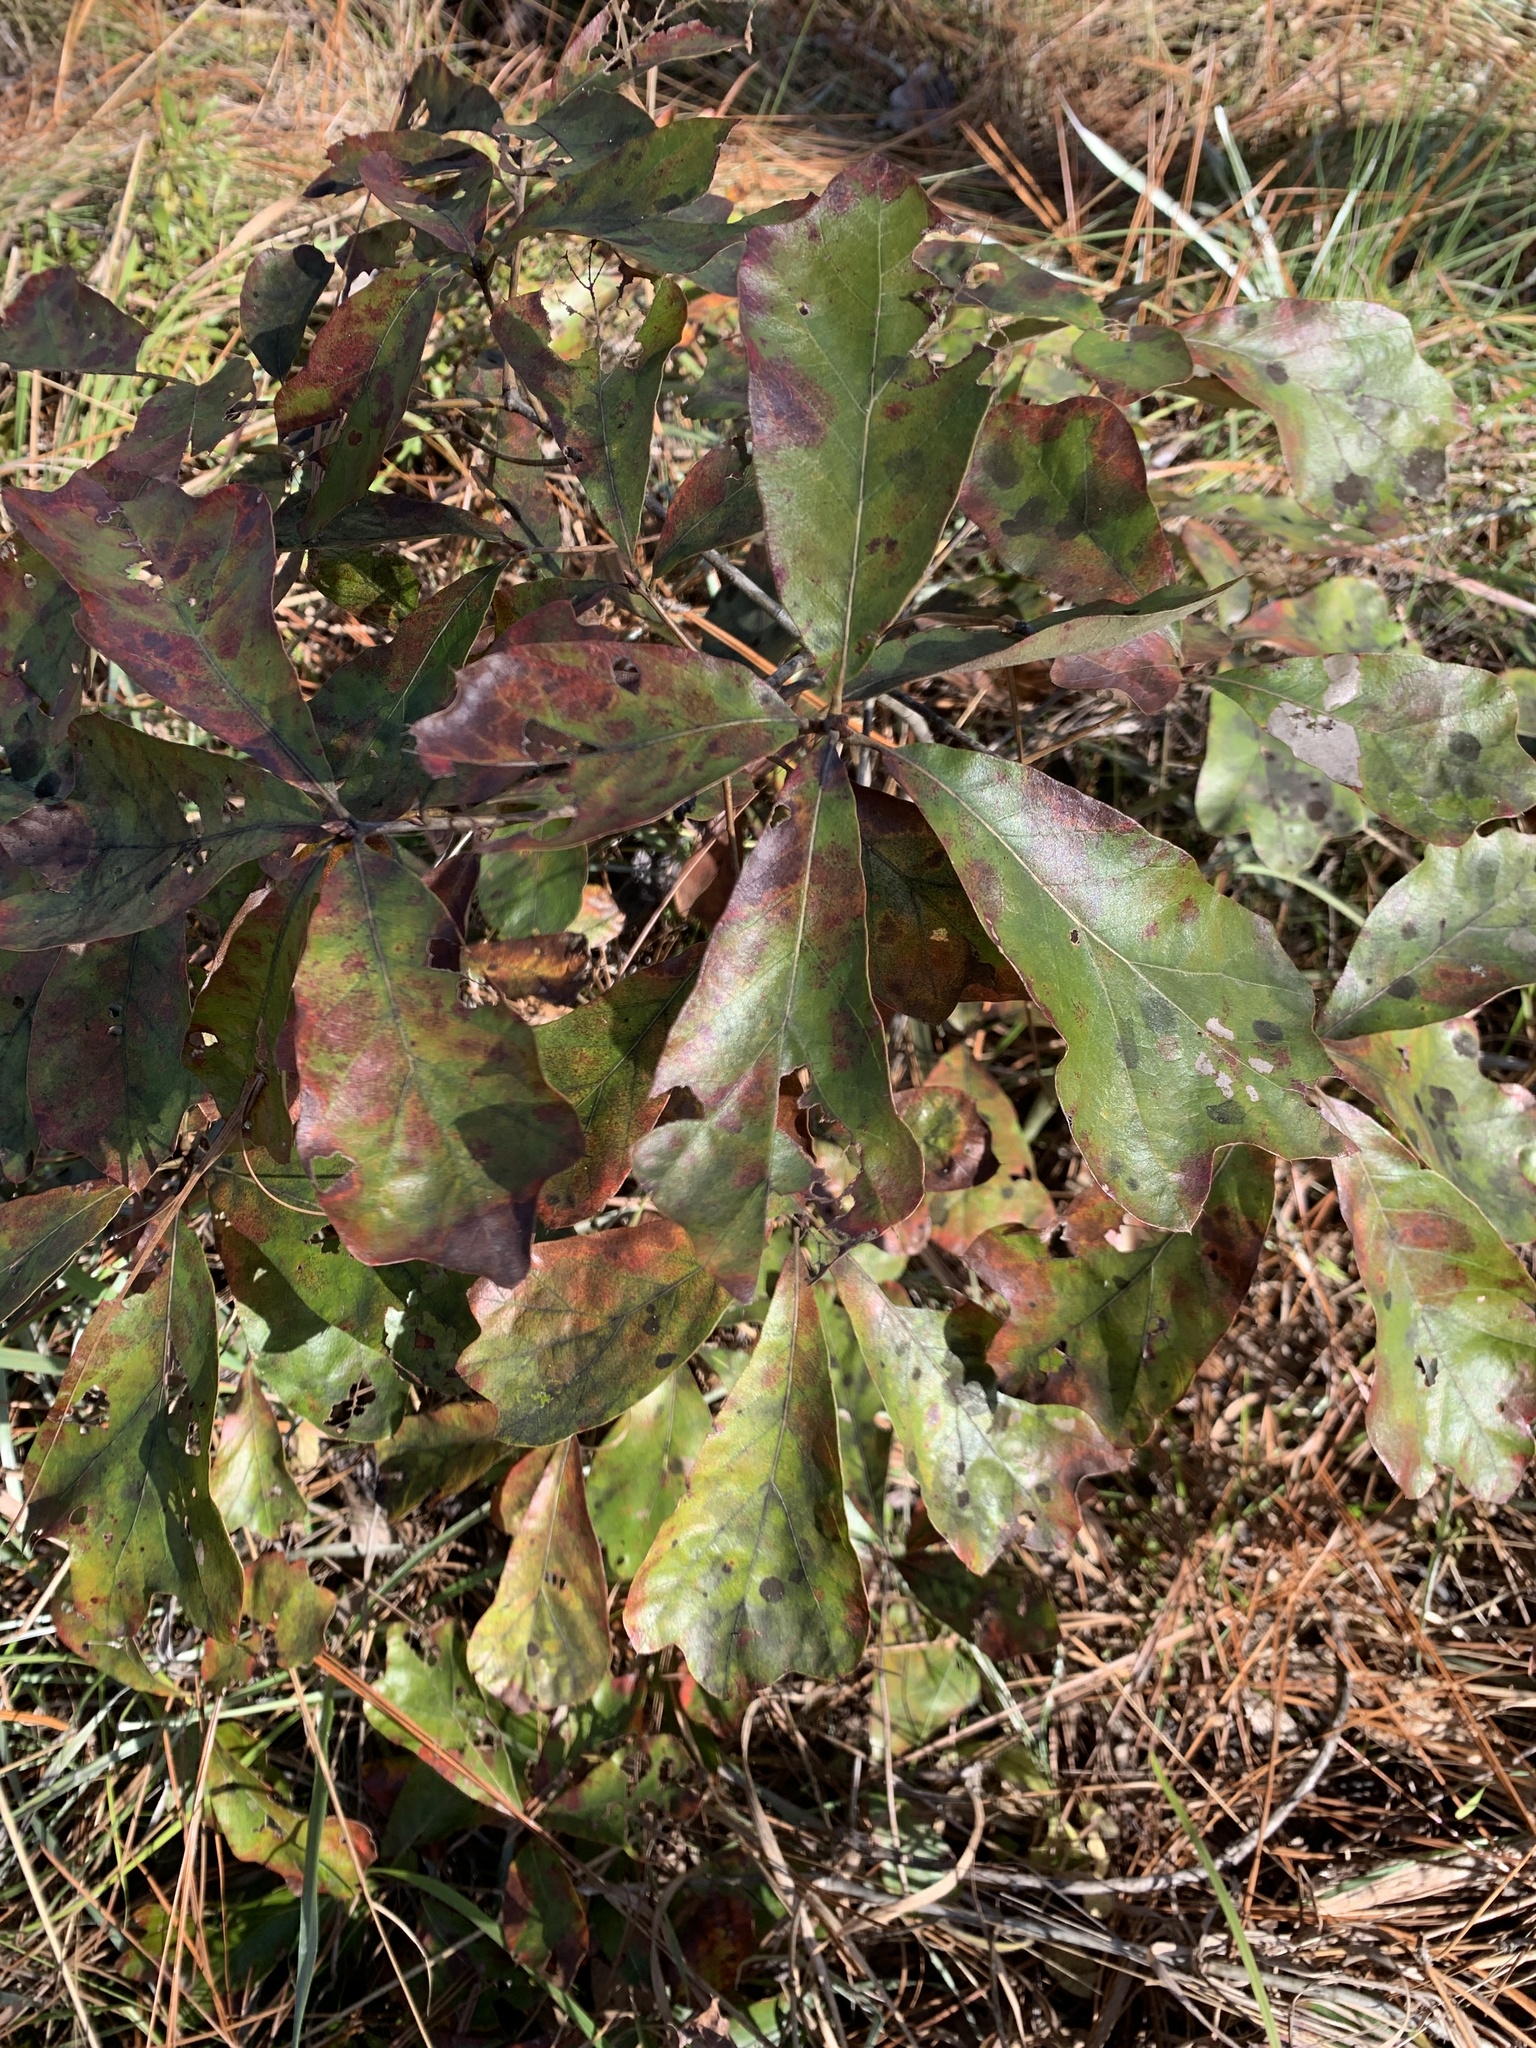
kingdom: Plantae
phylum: Tracheophyta
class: Magnoliopsida
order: Fagales
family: Fagaceae
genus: Quercus
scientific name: Quercus falcata
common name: Southern red oak
